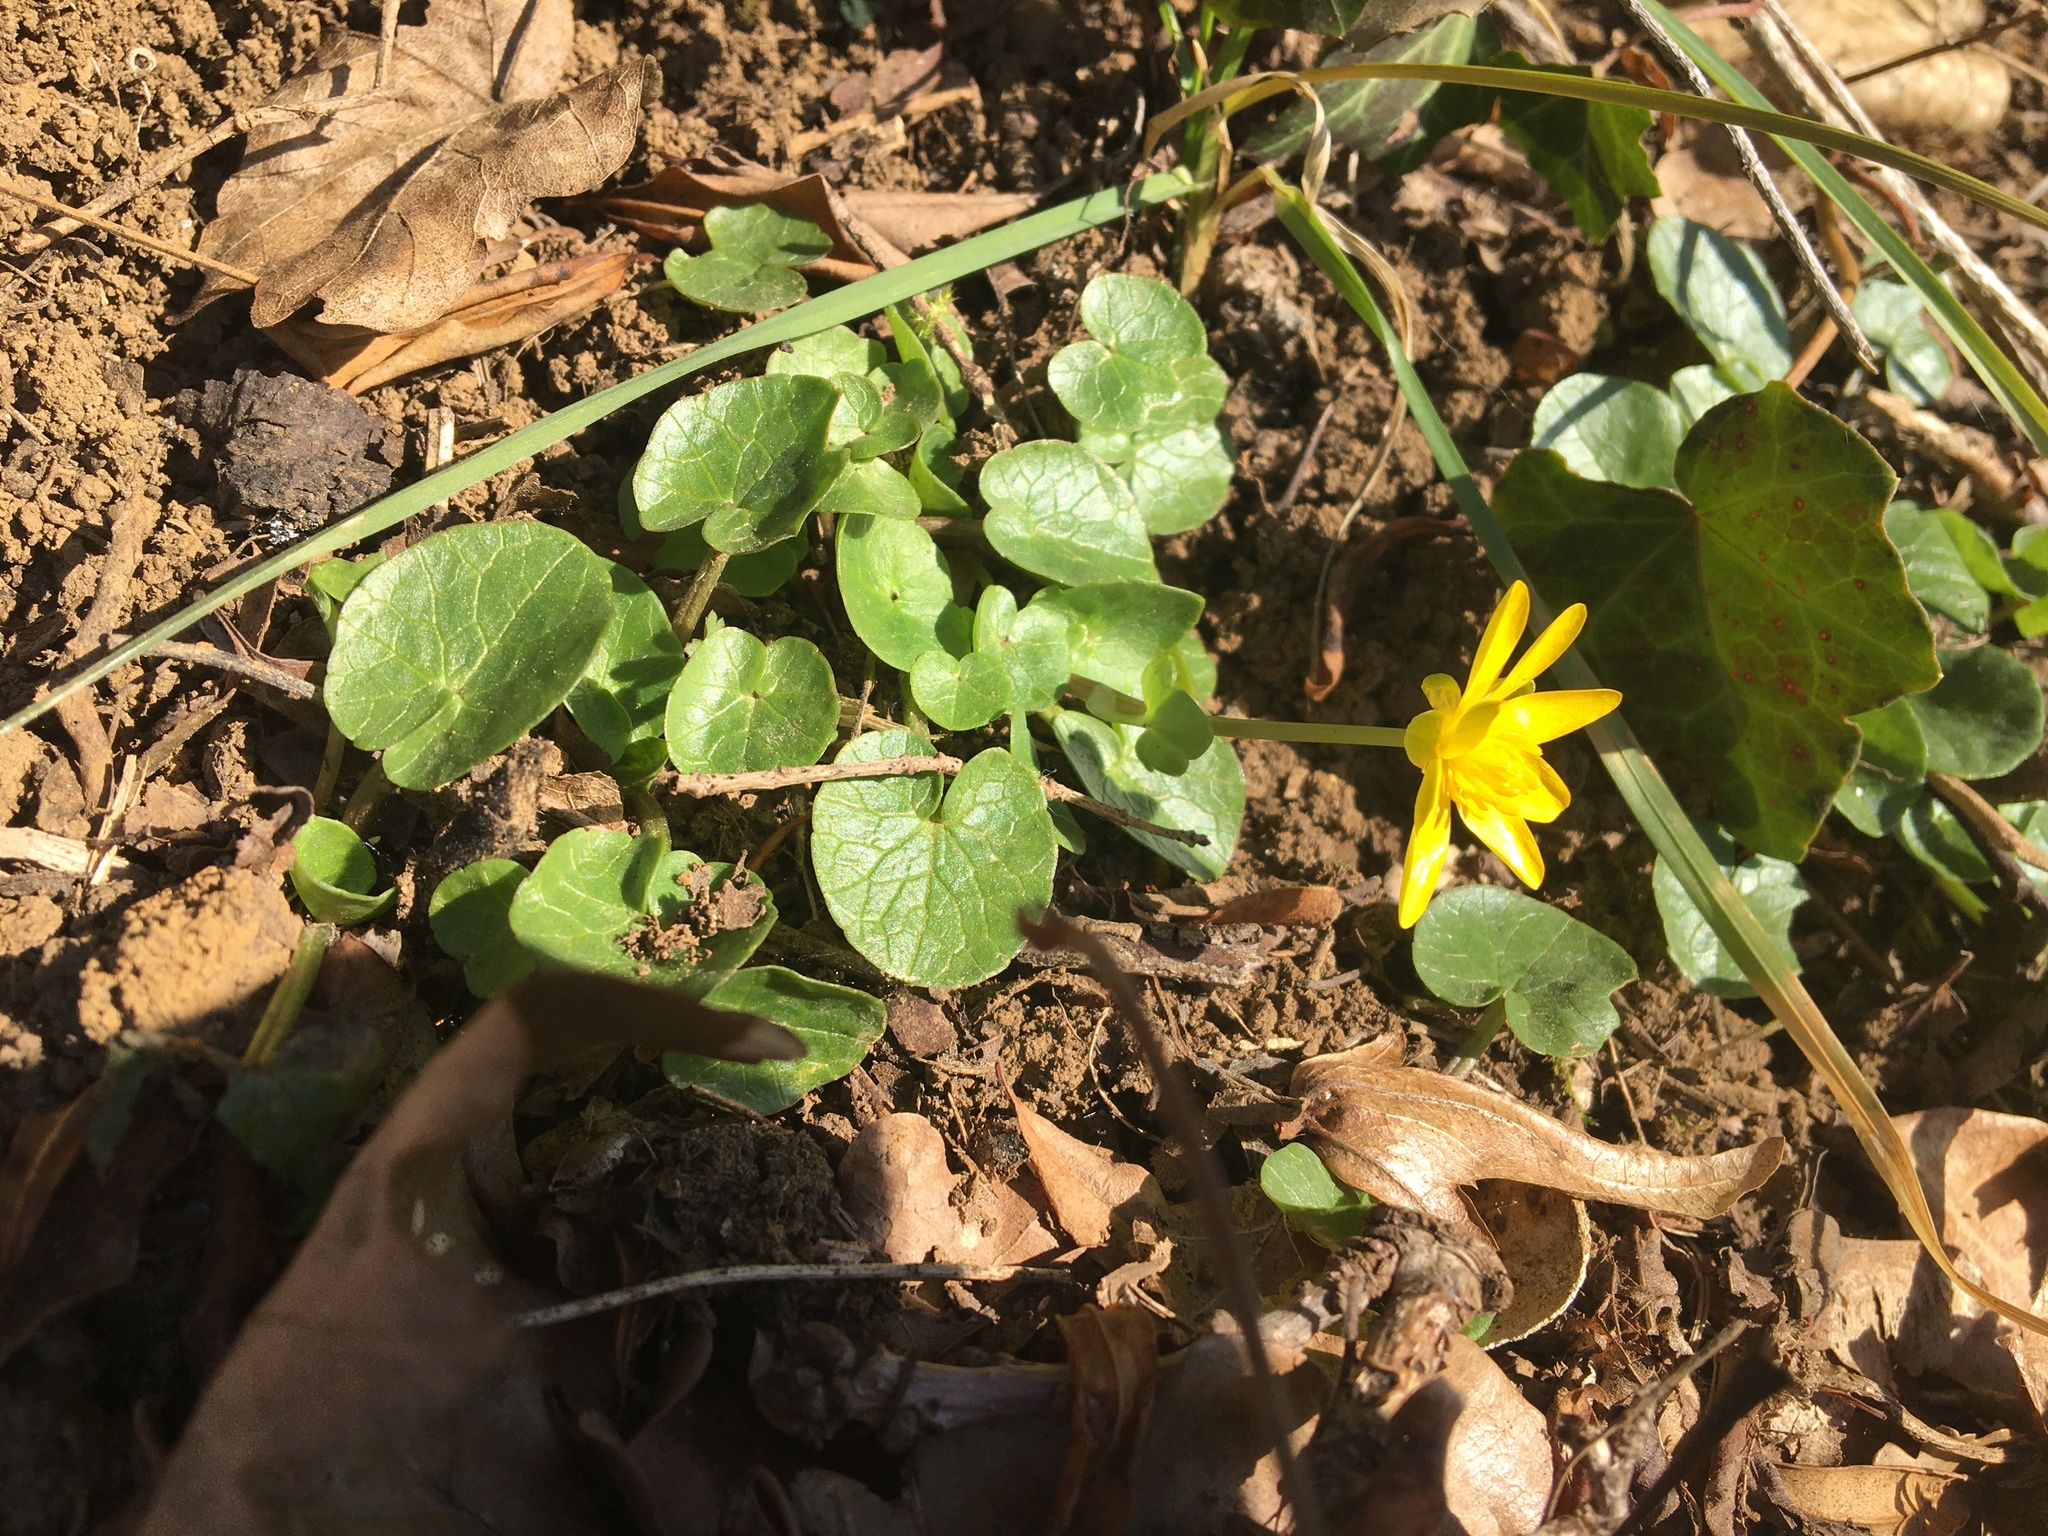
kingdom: Plantae
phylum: Tracheophyta
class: Magnoliopsida
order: Ranunculales
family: Ranunculaceae
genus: Ficaria
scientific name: Ficaria verna
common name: Lesser celandine
